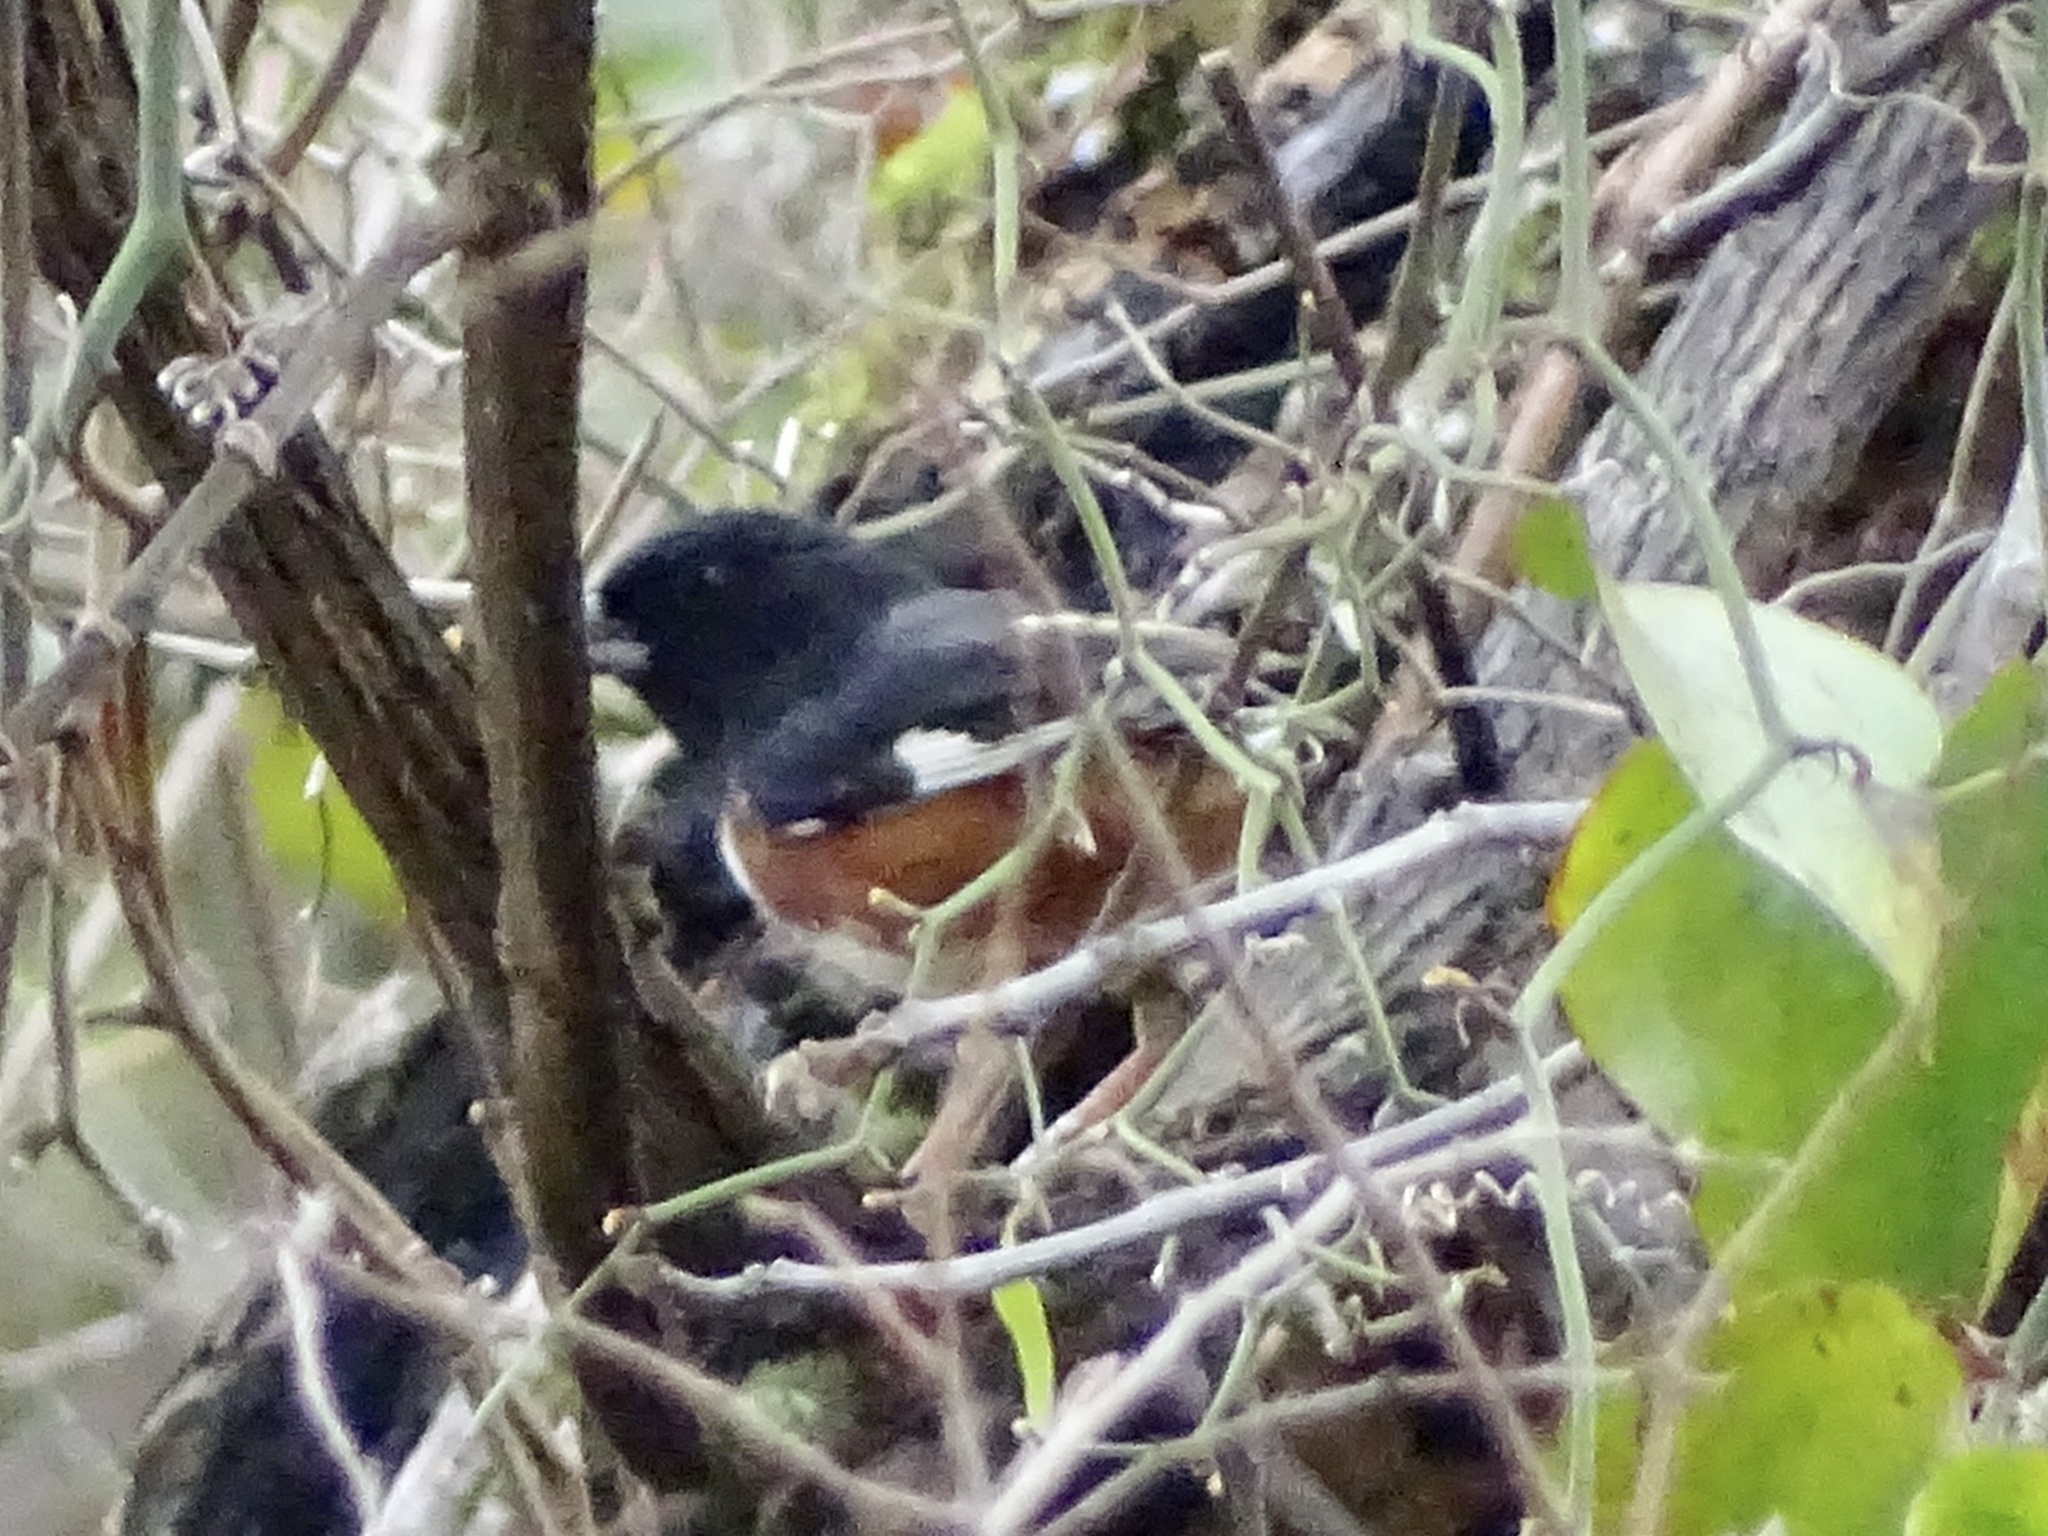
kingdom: Animalia
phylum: Chordata
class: Aves
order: Passeriformes
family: Passerellidae
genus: Pipilo
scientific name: Pipilo erythrophthalmus
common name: Eastern towhee
